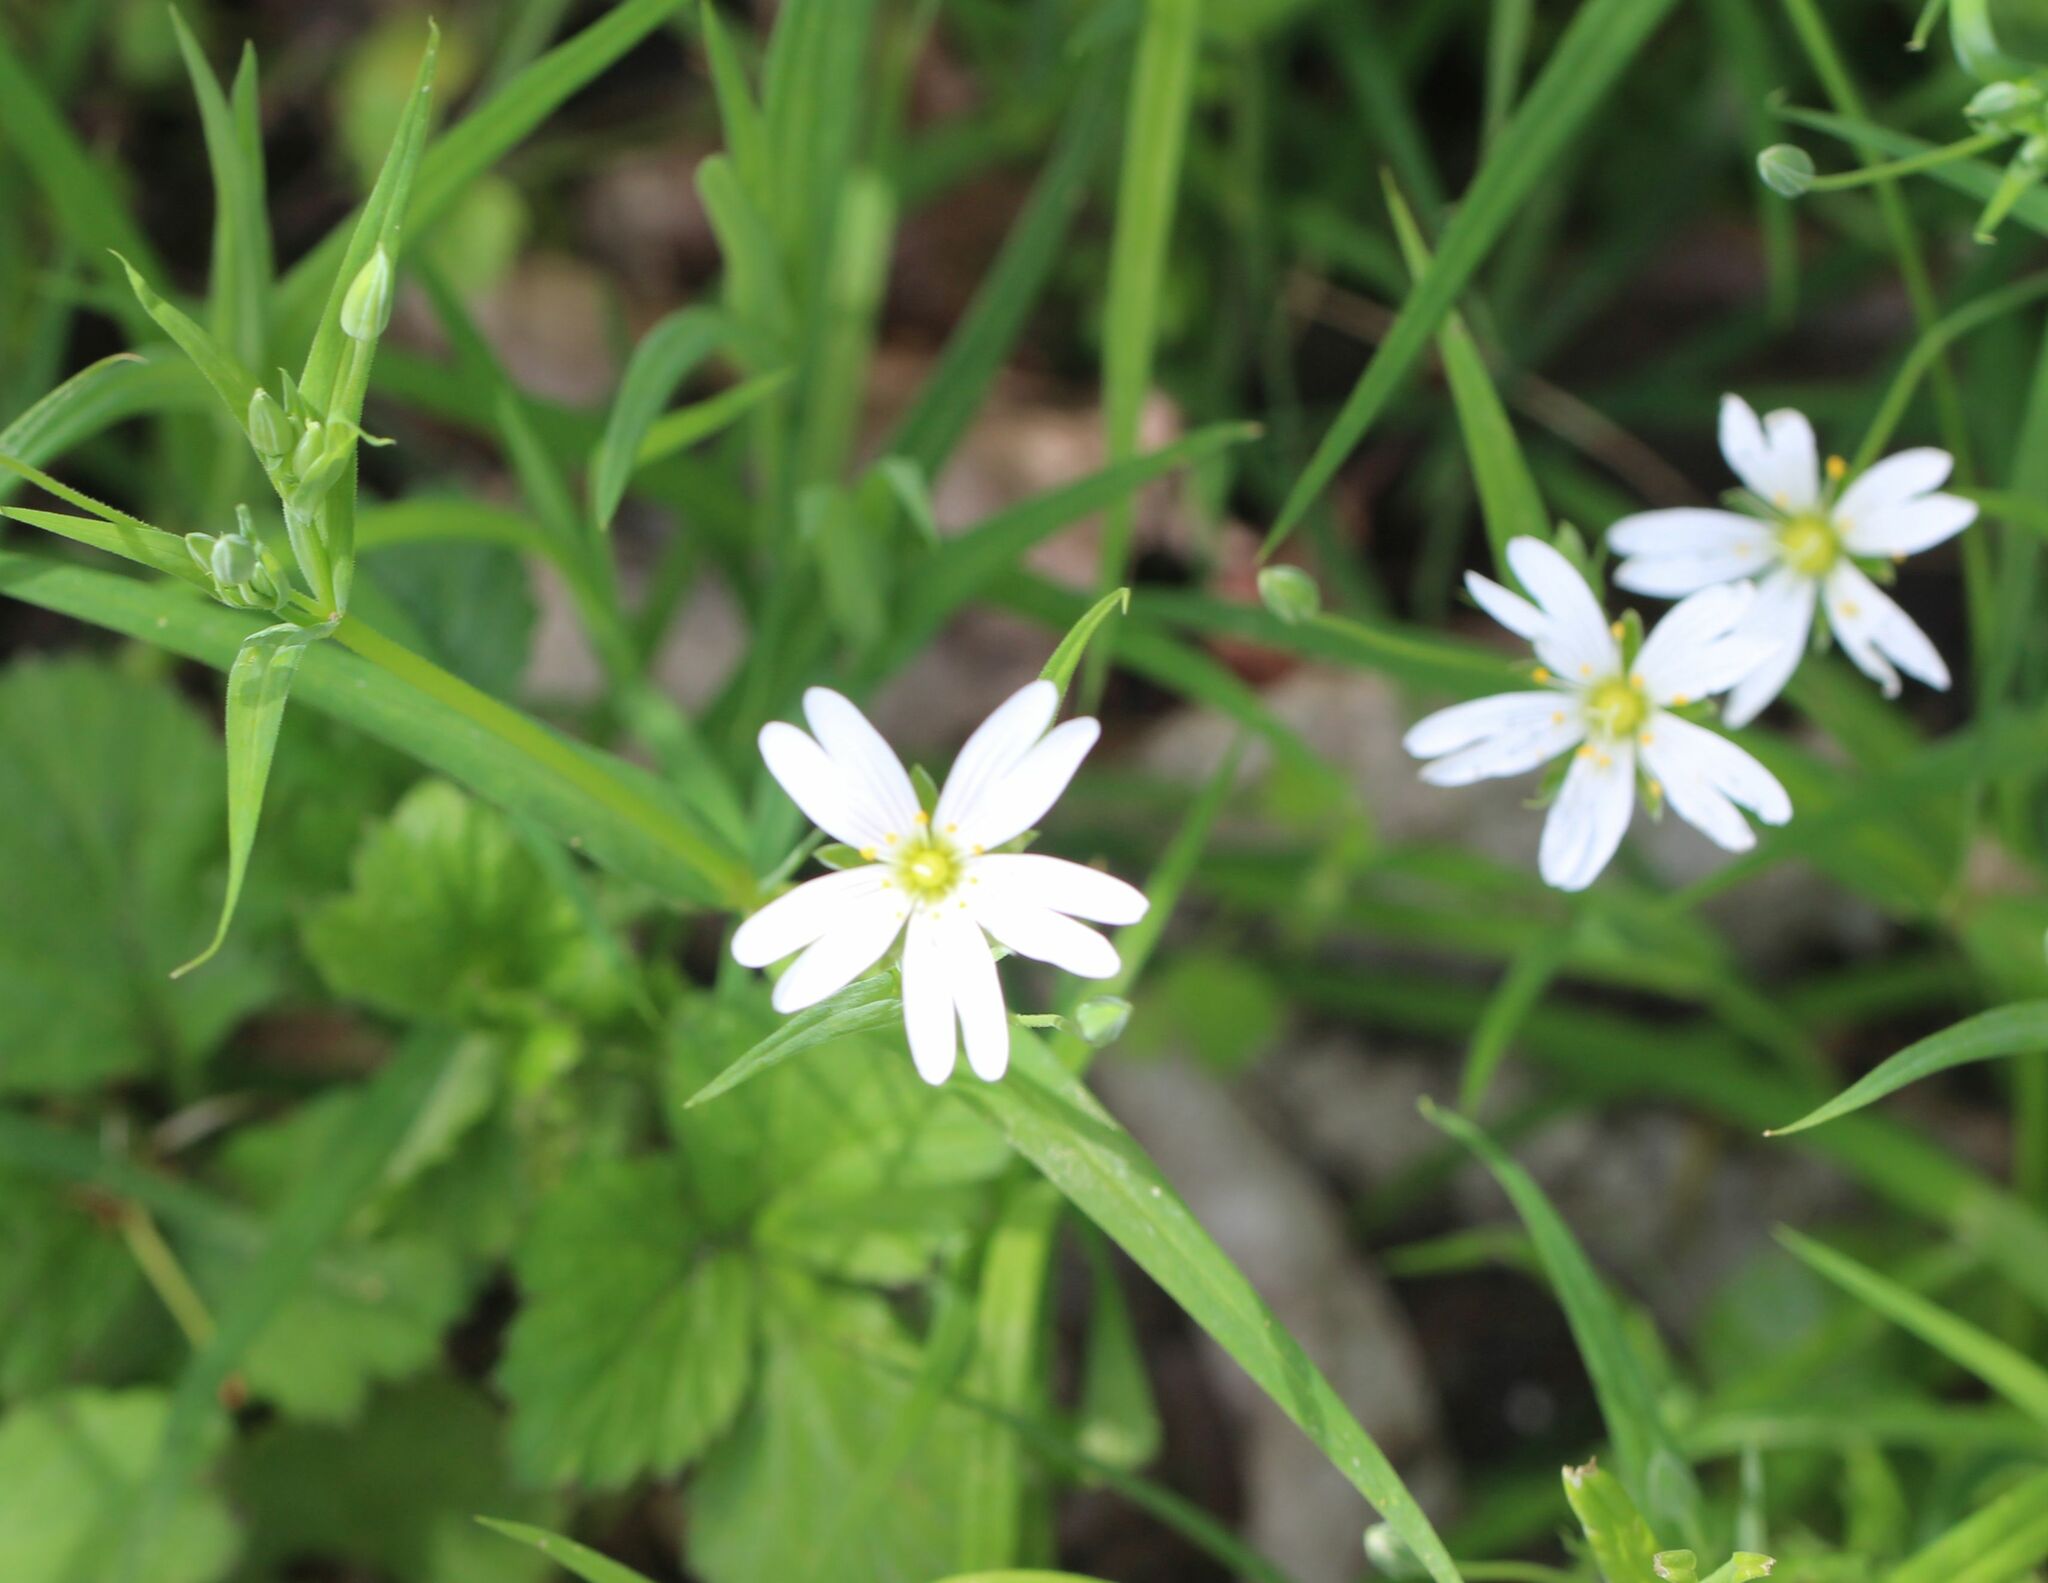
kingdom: Plantae
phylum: Tracheophyta
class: Magnoliopsida
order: Caryophyllales
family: Caryophyllaceae
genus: Rabelera
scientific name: Rabelera holostea
